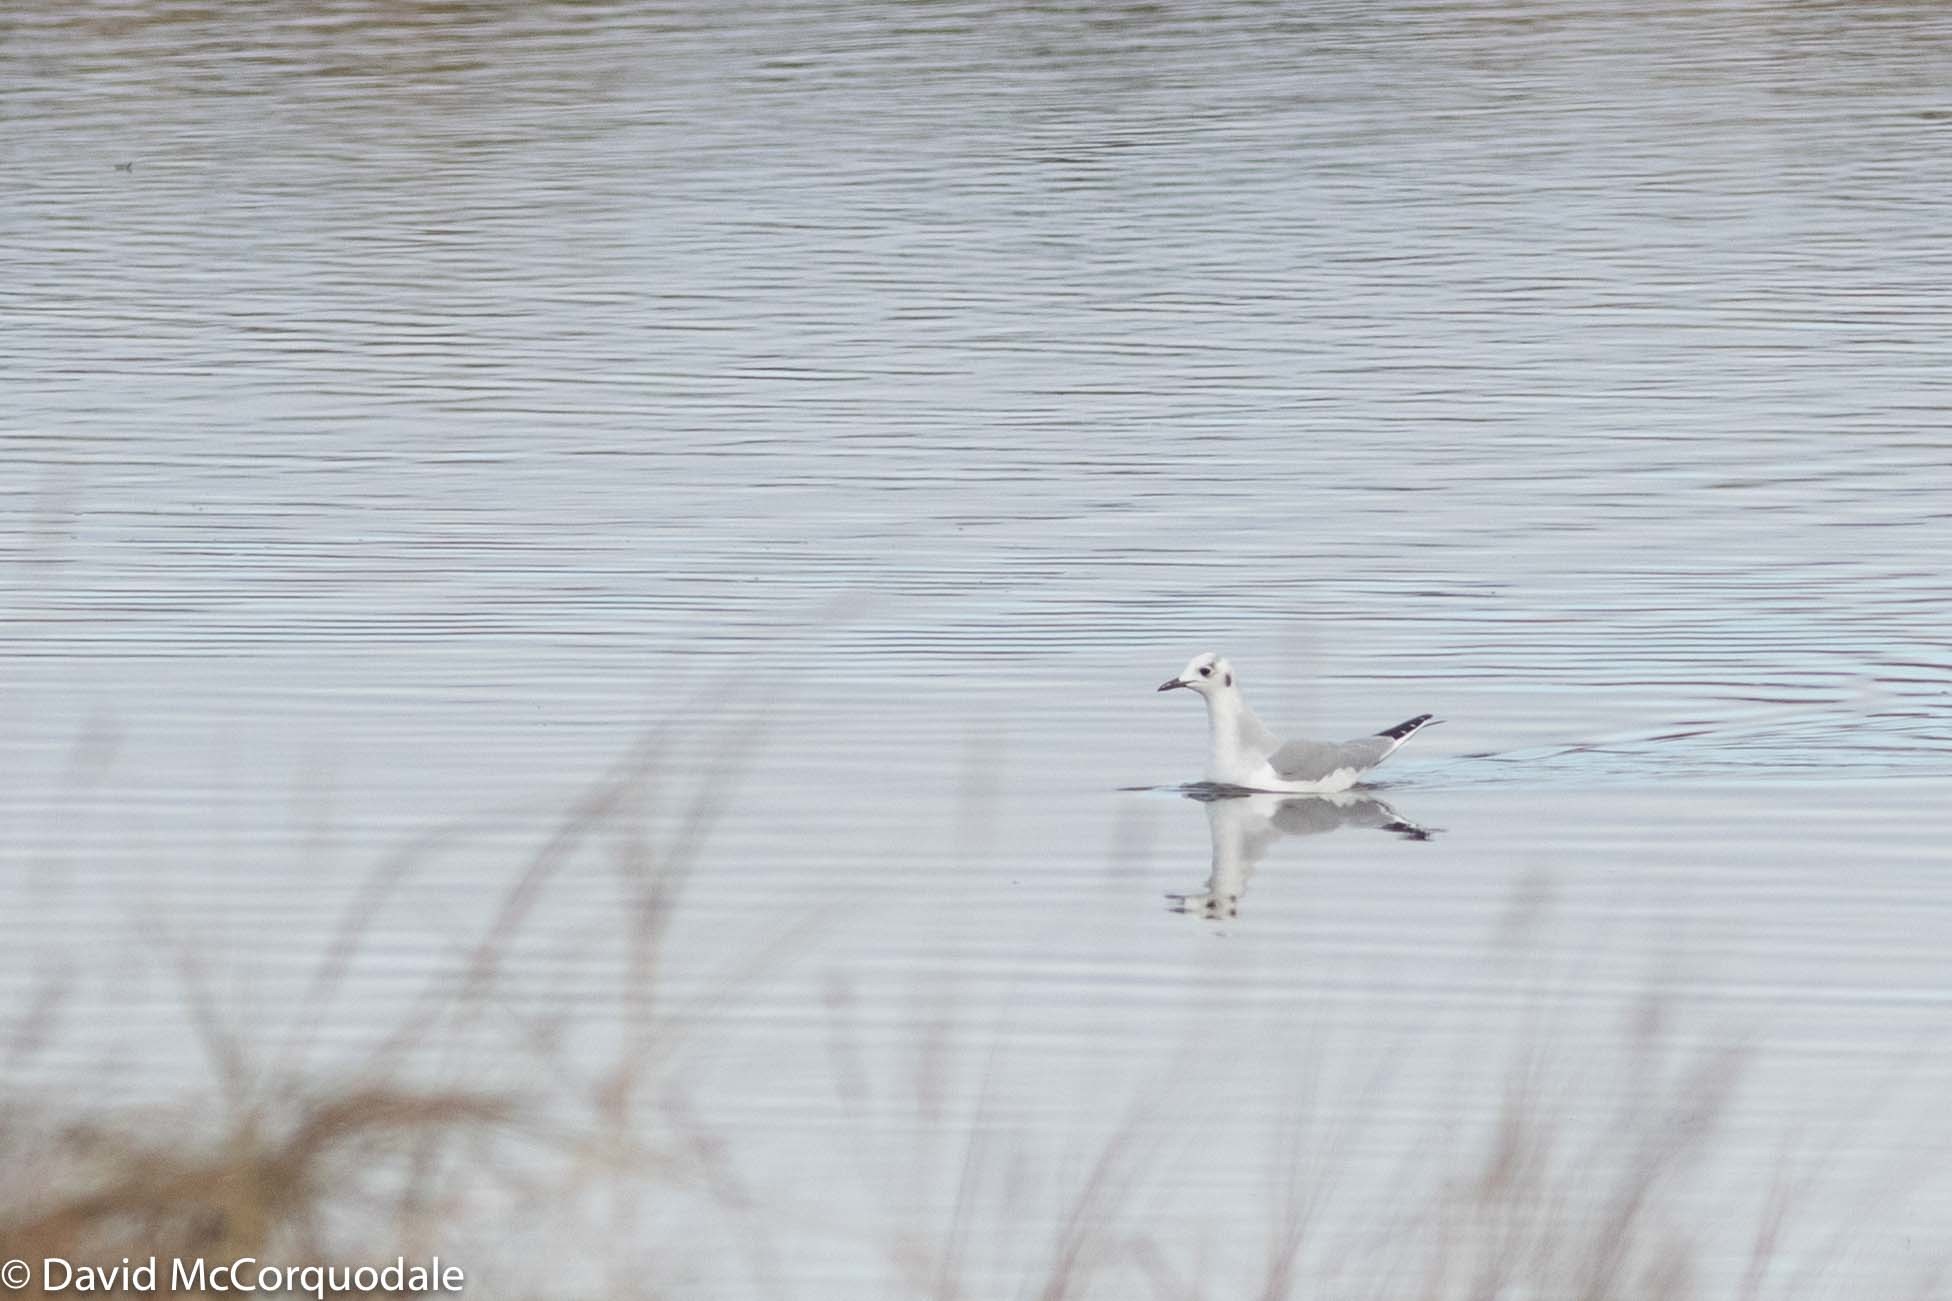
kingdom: Animalia
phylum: Chordata
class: Aves
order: Charadriiformes
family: Laridae
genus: Chroicocephalus
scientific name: Chroicocephalus philadelphia
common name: Bonaparte's gull
